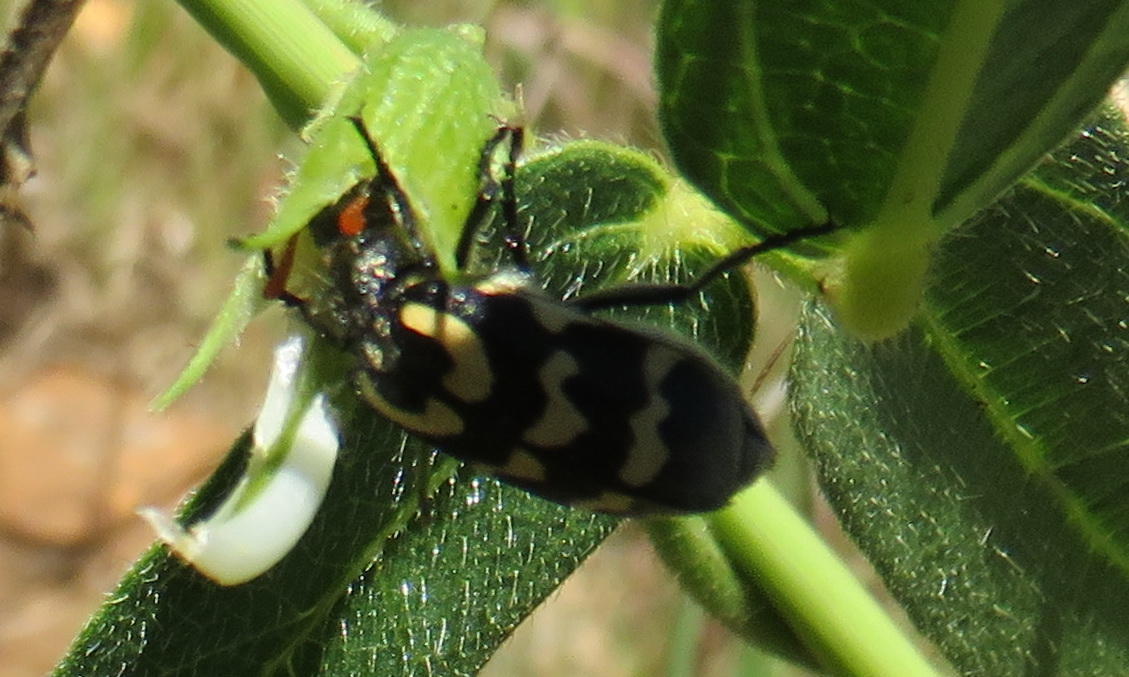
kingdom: Animalia
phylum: Arthropoda
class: Insecta
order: Coleoptera
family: Meloidae
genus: Meloe
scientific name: Meloe lunata
